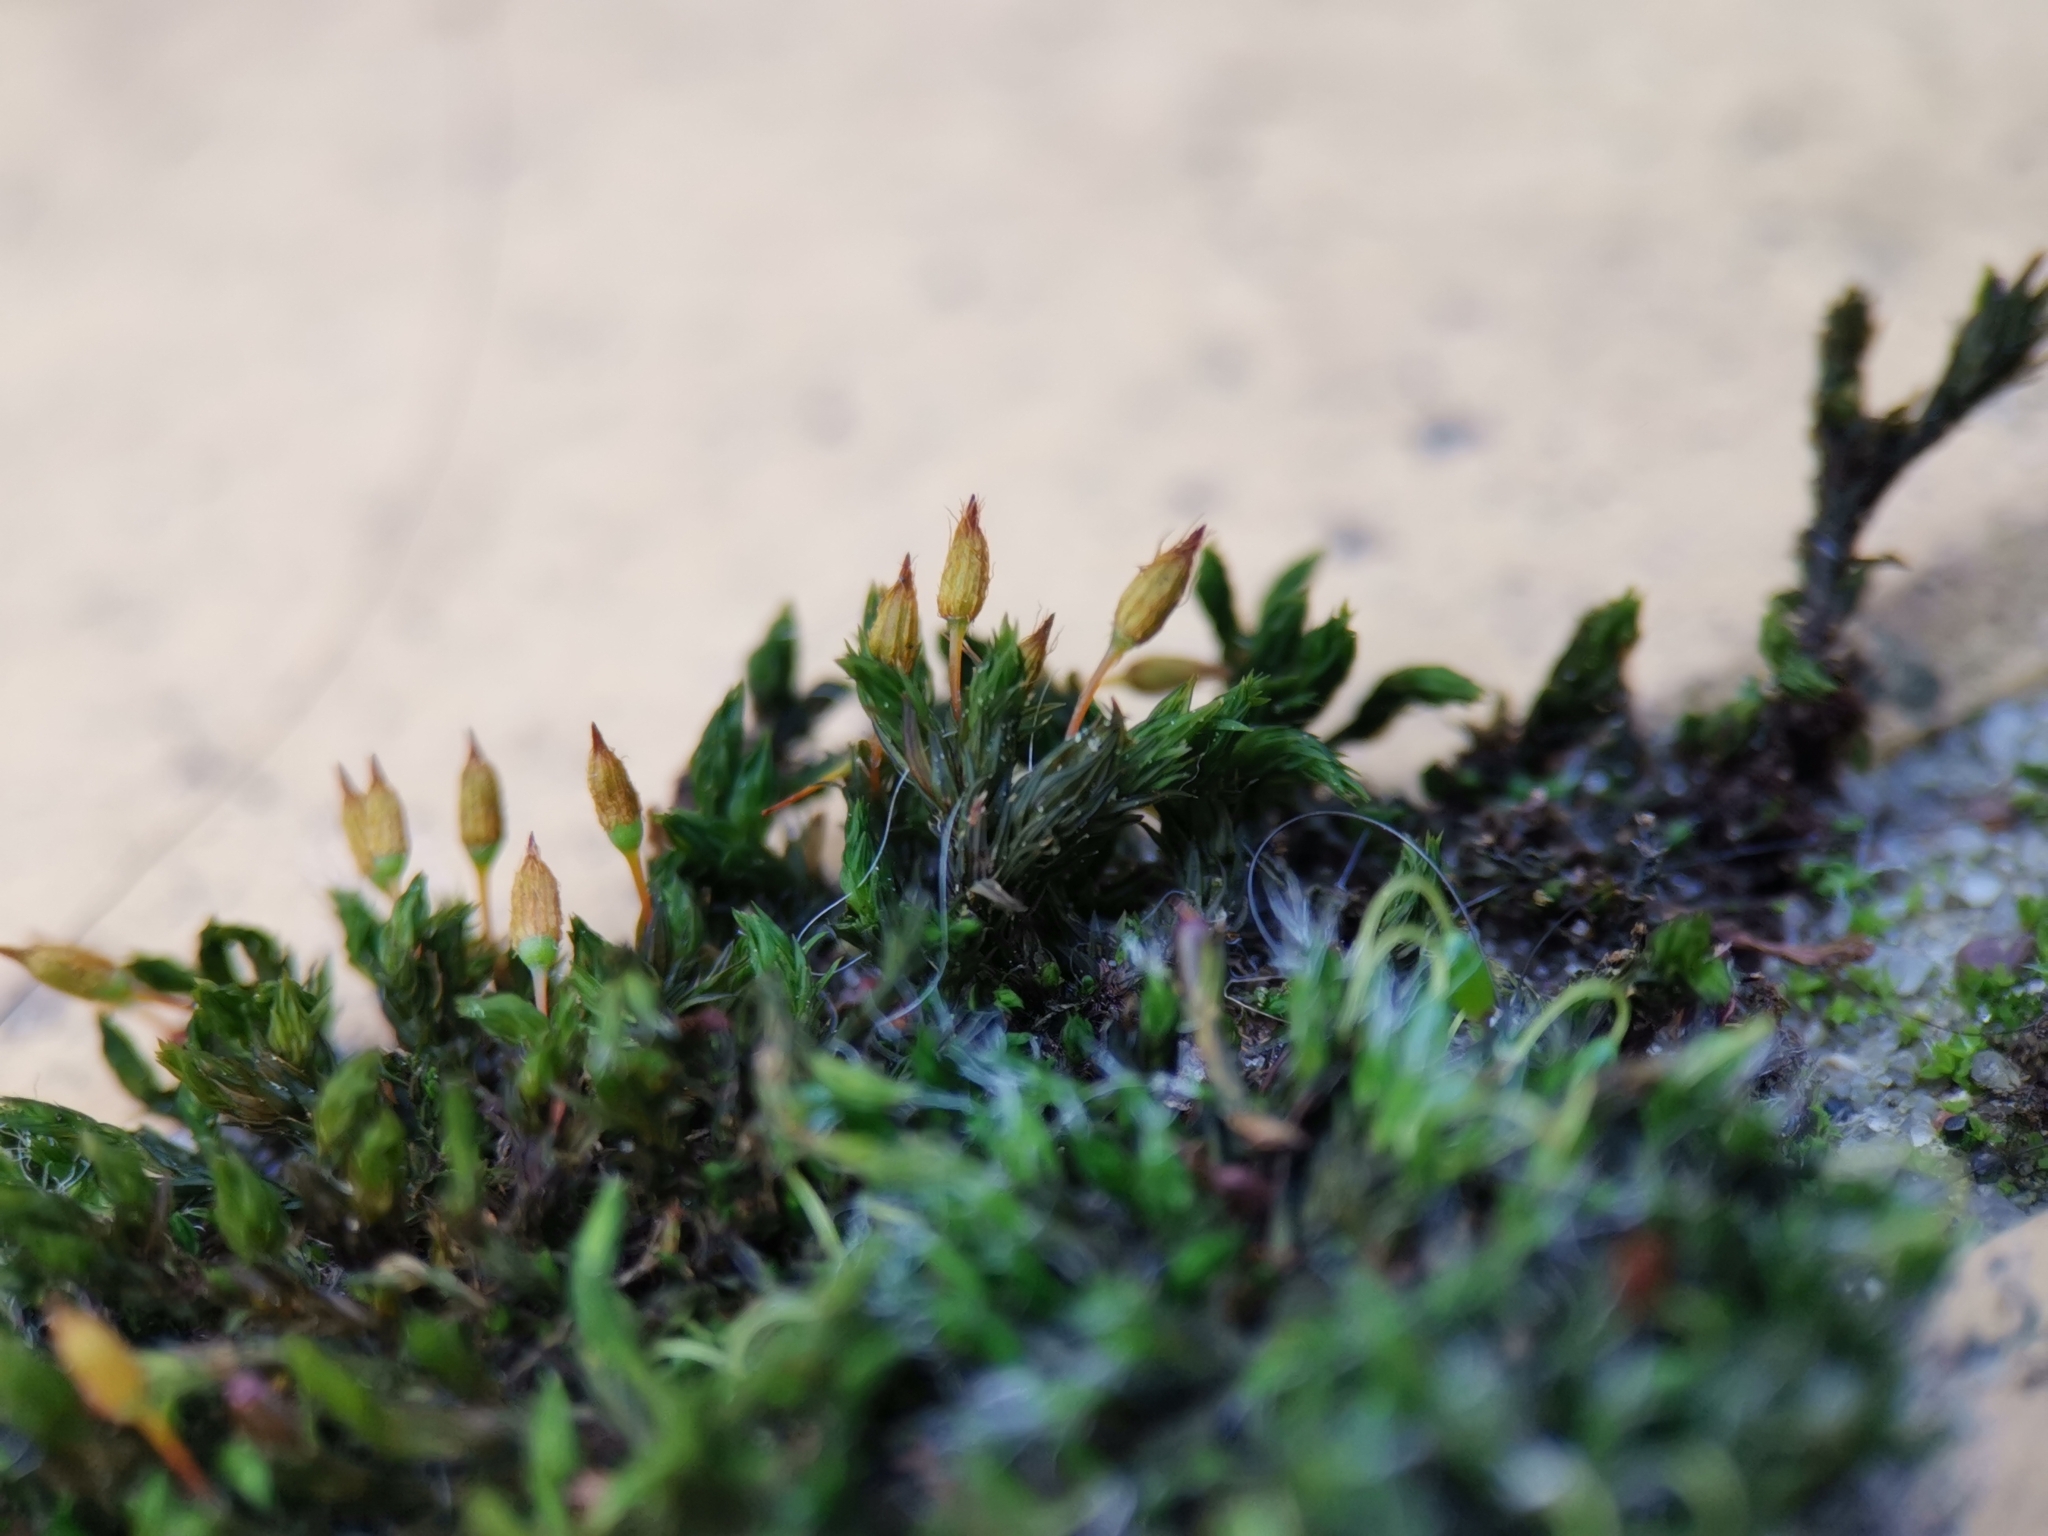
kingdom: Plantae
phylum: Bryophyta
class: Bryopsida
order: Orthotrichales
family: Orthotrichaceae
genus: Orthotrichum
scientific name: Orthotrichum anomalum
